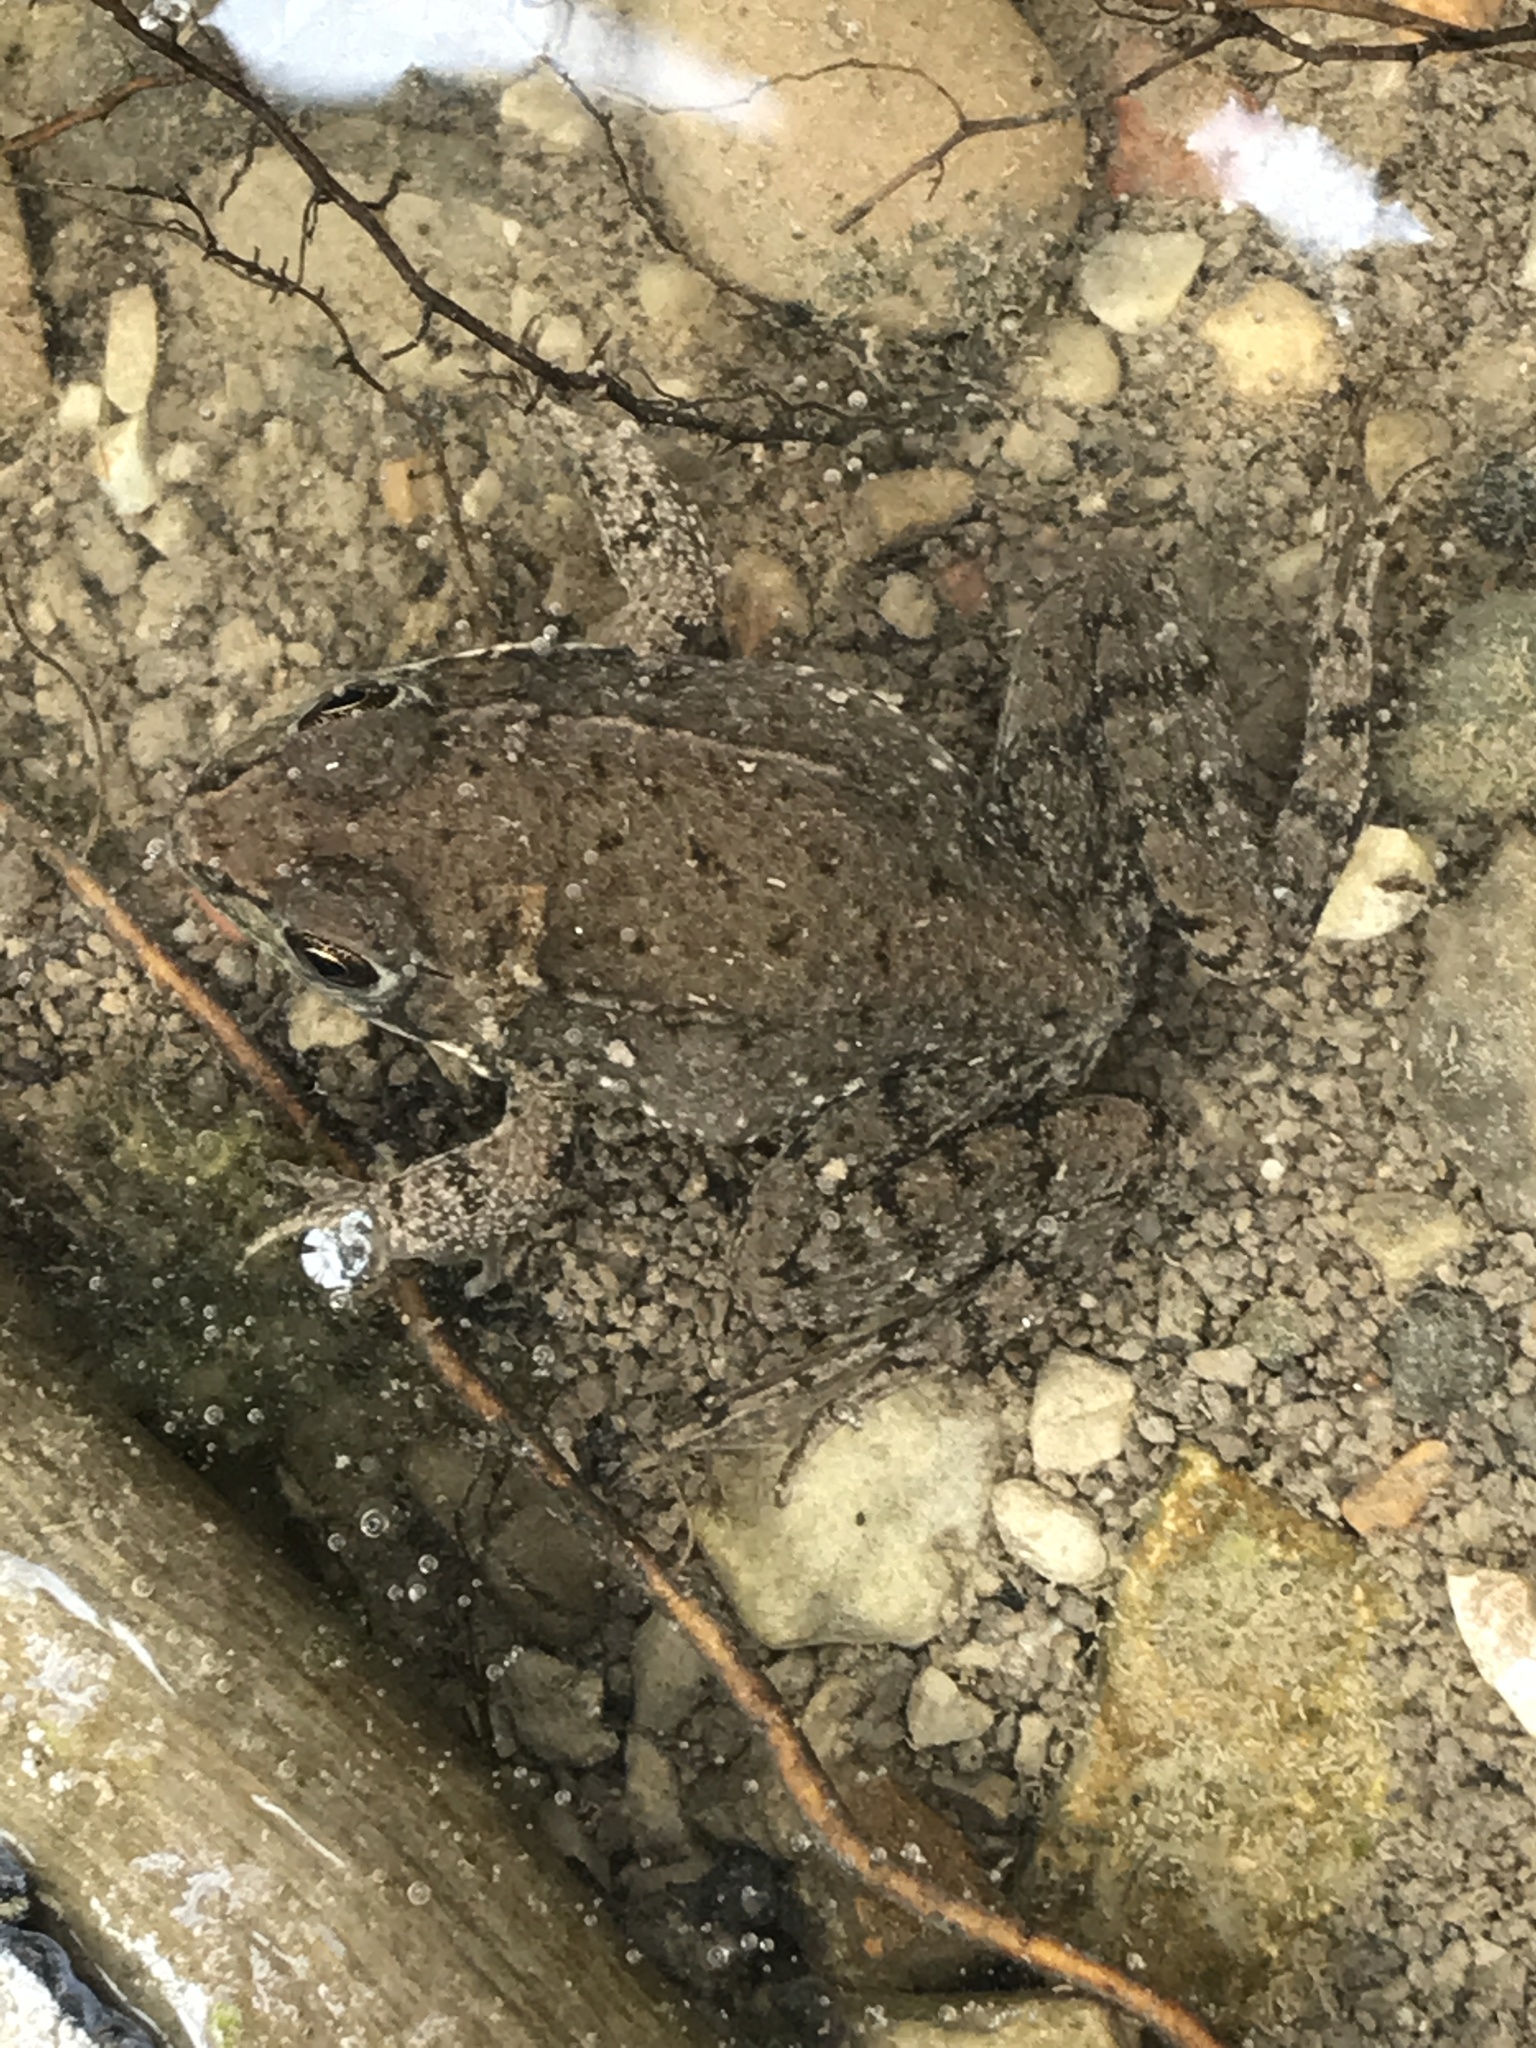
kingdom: Animalia
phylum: Chordata
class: Amphibia
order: Anura
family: Ranidae
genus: Lithobates
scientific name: Lithobates clamitans
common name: Green frog
